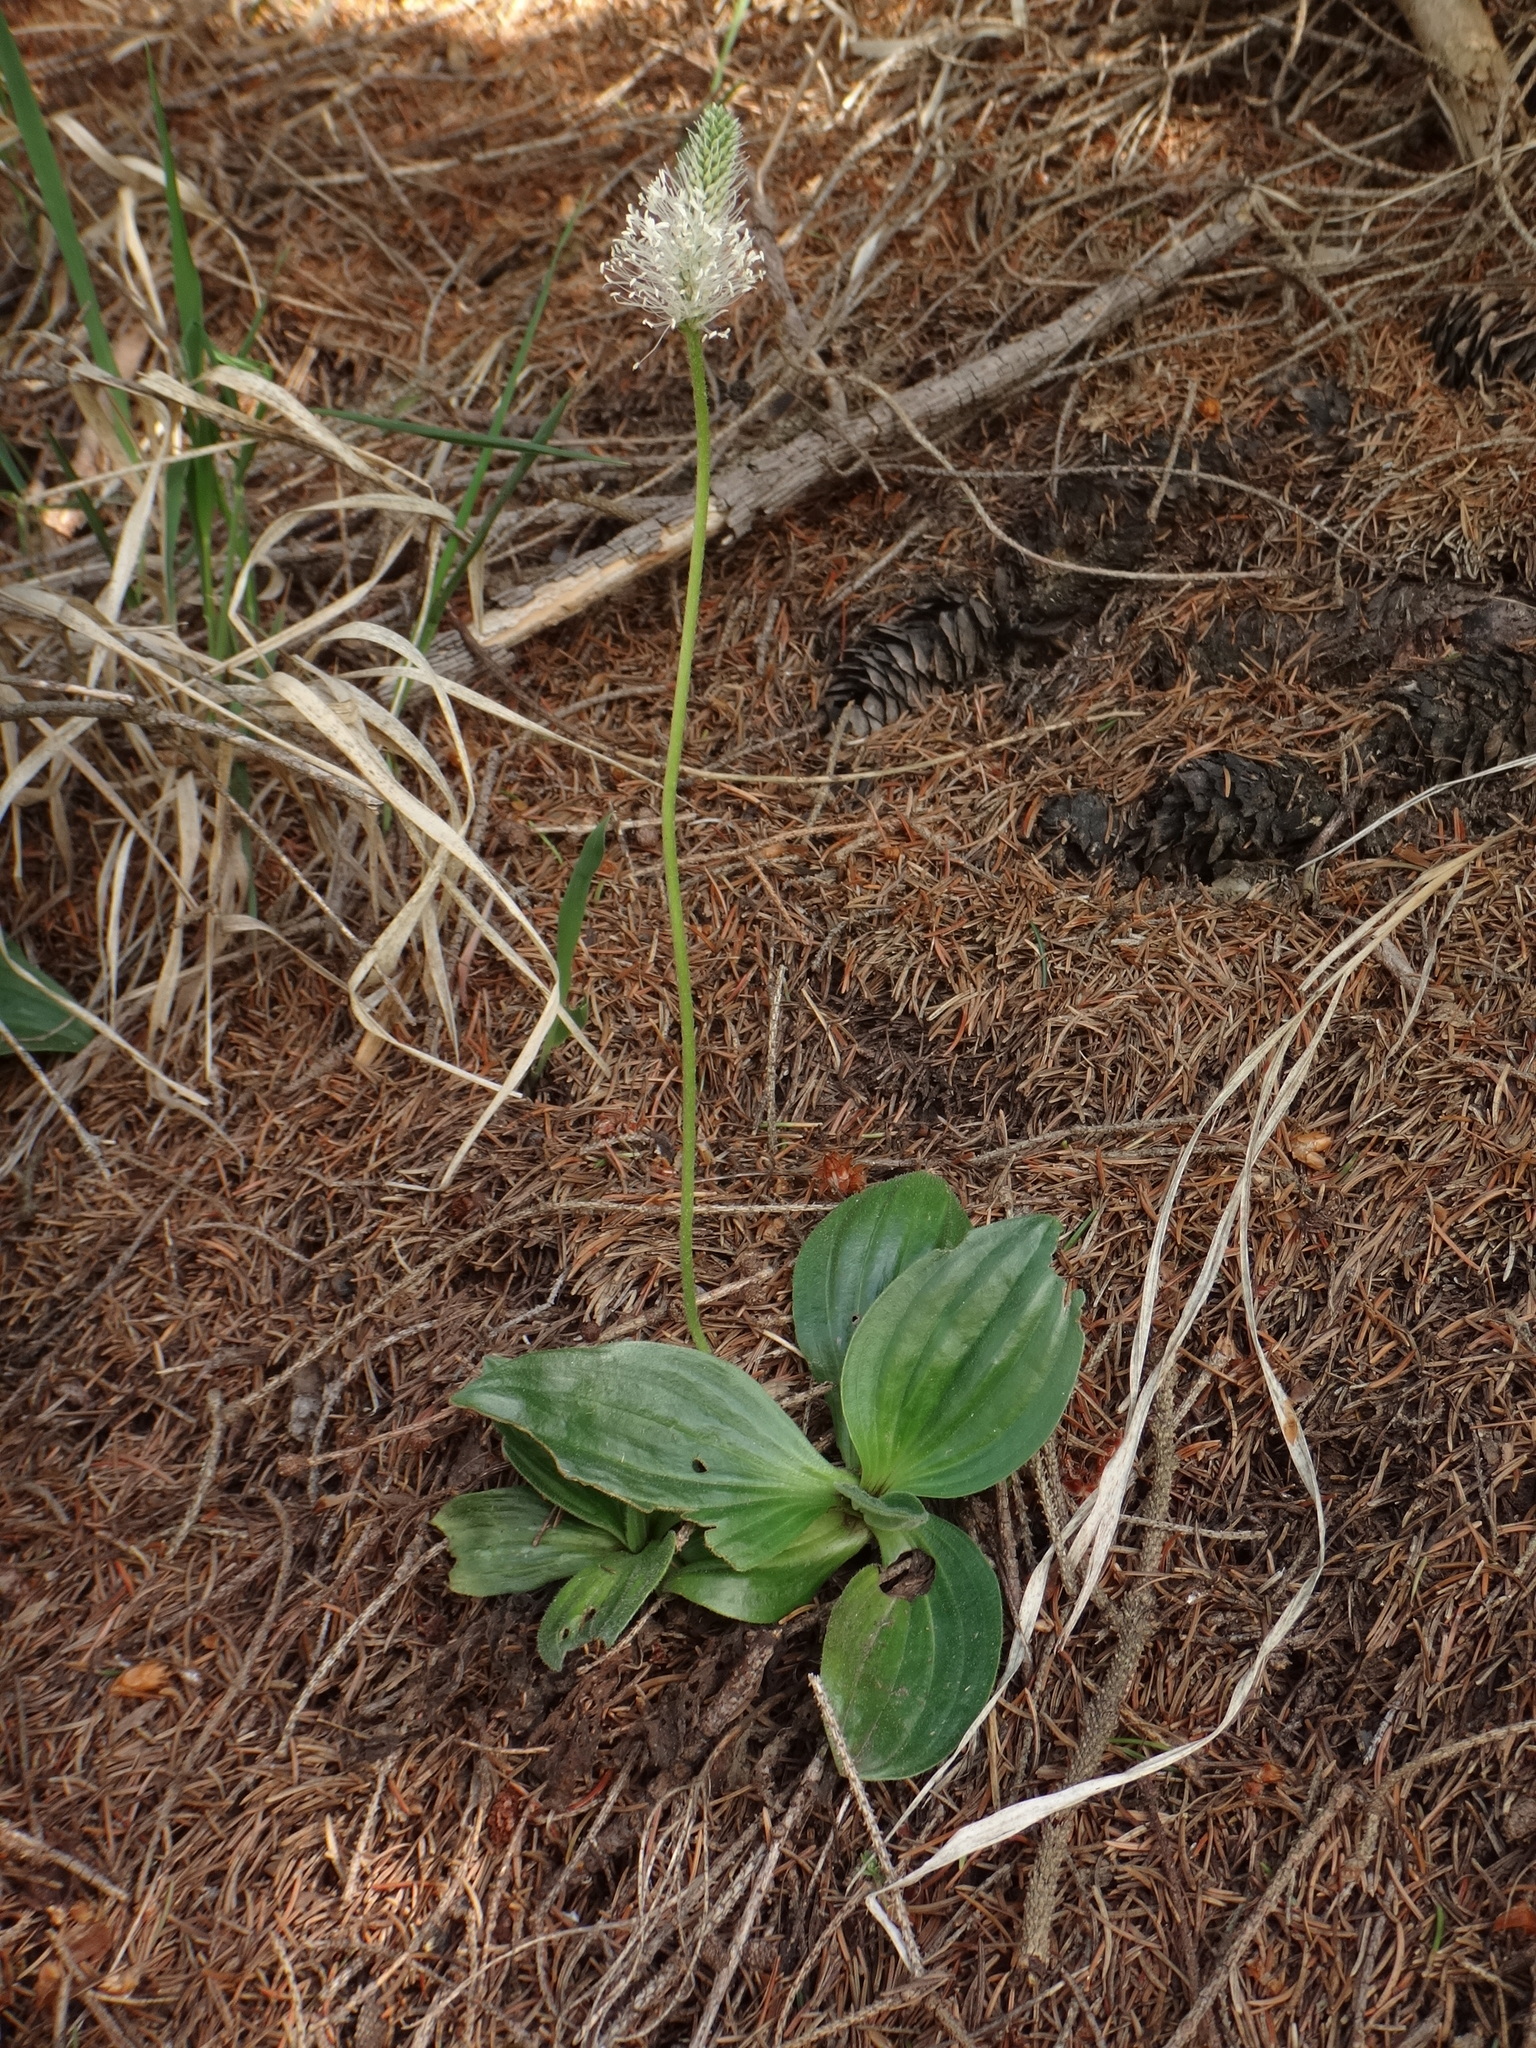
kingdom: Plantae
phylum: Tracheophyta
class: Magnoliopsida
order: Lamiales
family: Plantaginaceae
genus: Plantago
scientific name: Plantago media
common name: Hoary plantain
